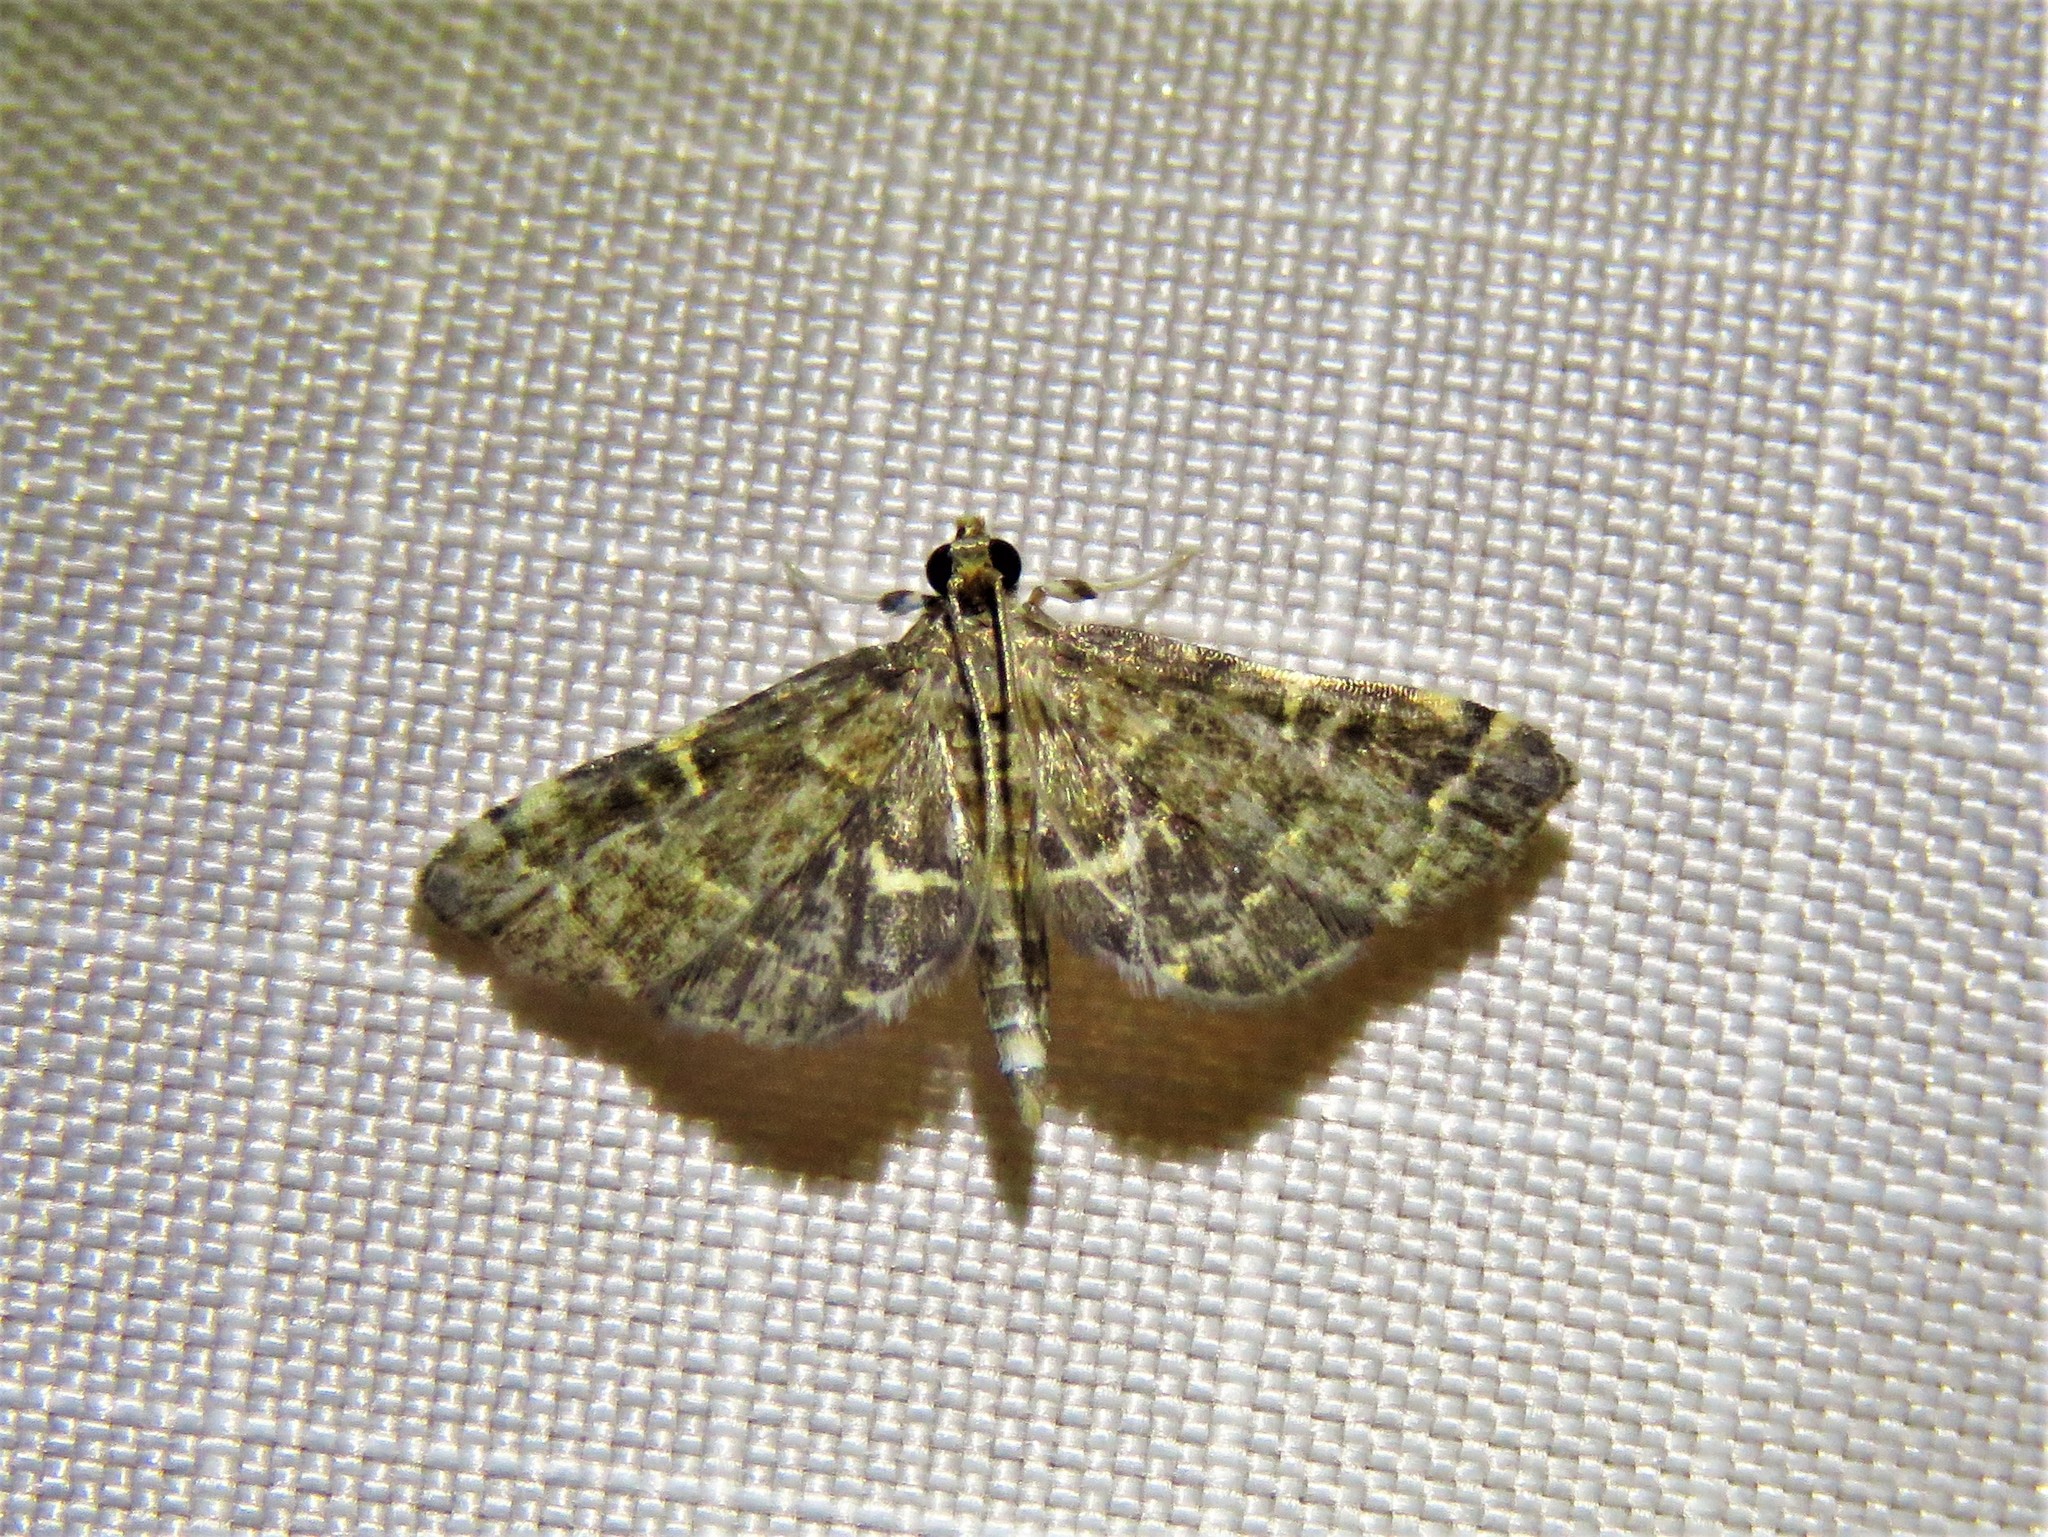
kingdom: Animalia
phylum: Arthropoda
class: Insecta
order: Lepidoptera
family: Crambidae
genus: Anageshna
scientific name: Anageshna primordialis
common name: Yellow-spotted webworm moth
